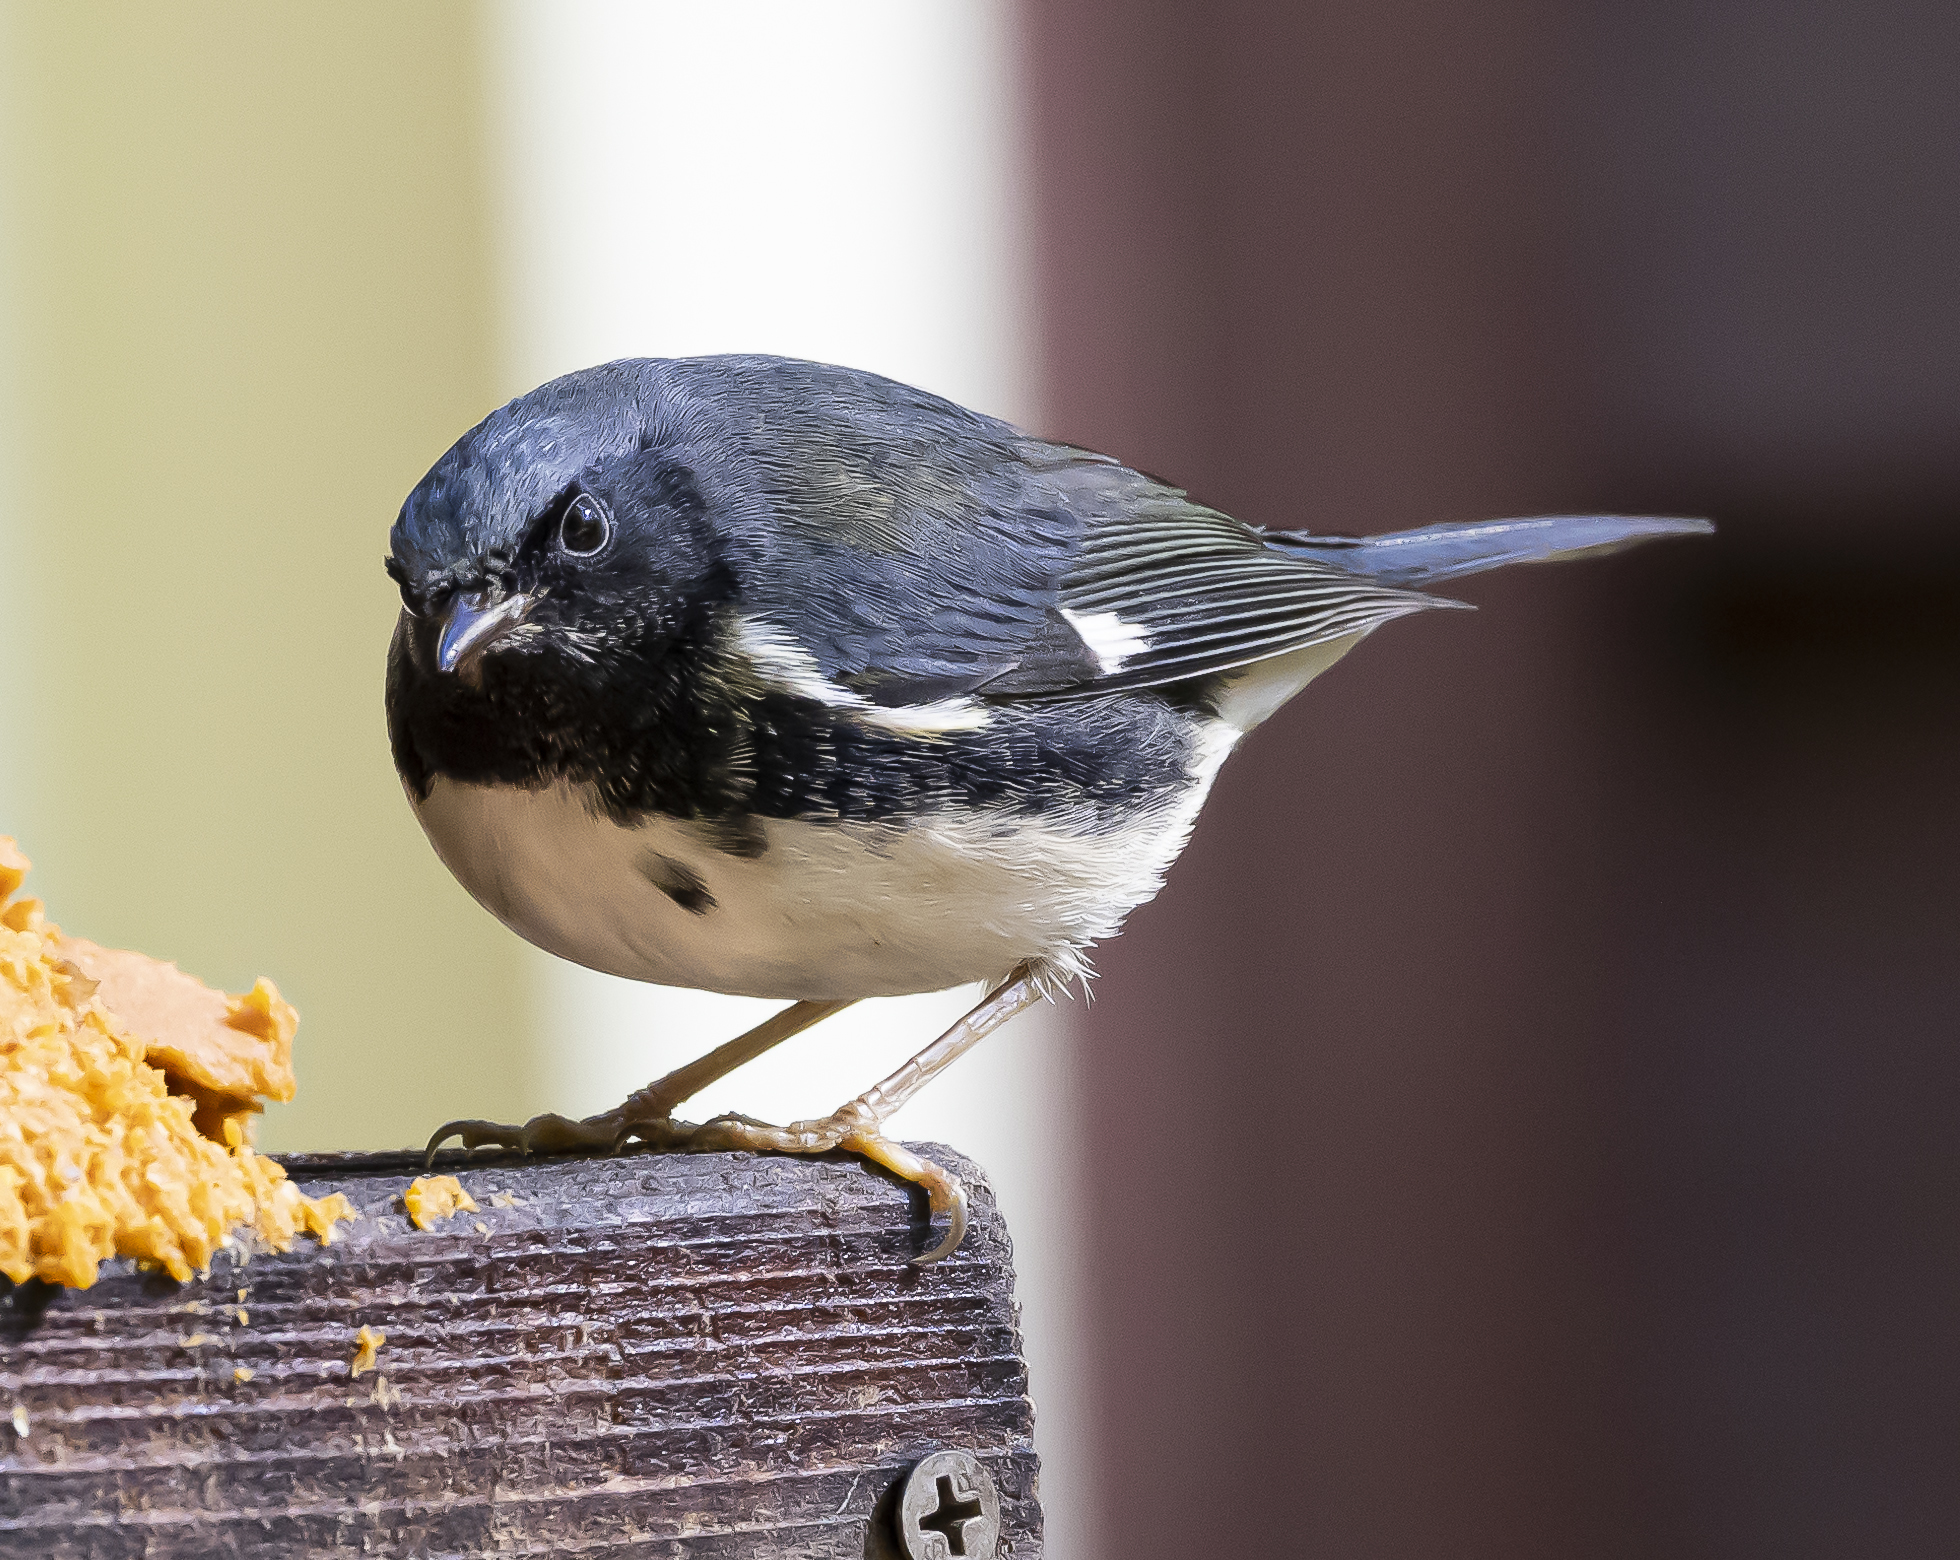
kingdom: Animalia
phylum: Chordata
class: Aves
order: Passeriformes
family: Parulidae
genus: Setophaga
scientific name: Setophaga caerulescens
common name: Black-throated blue warbler
